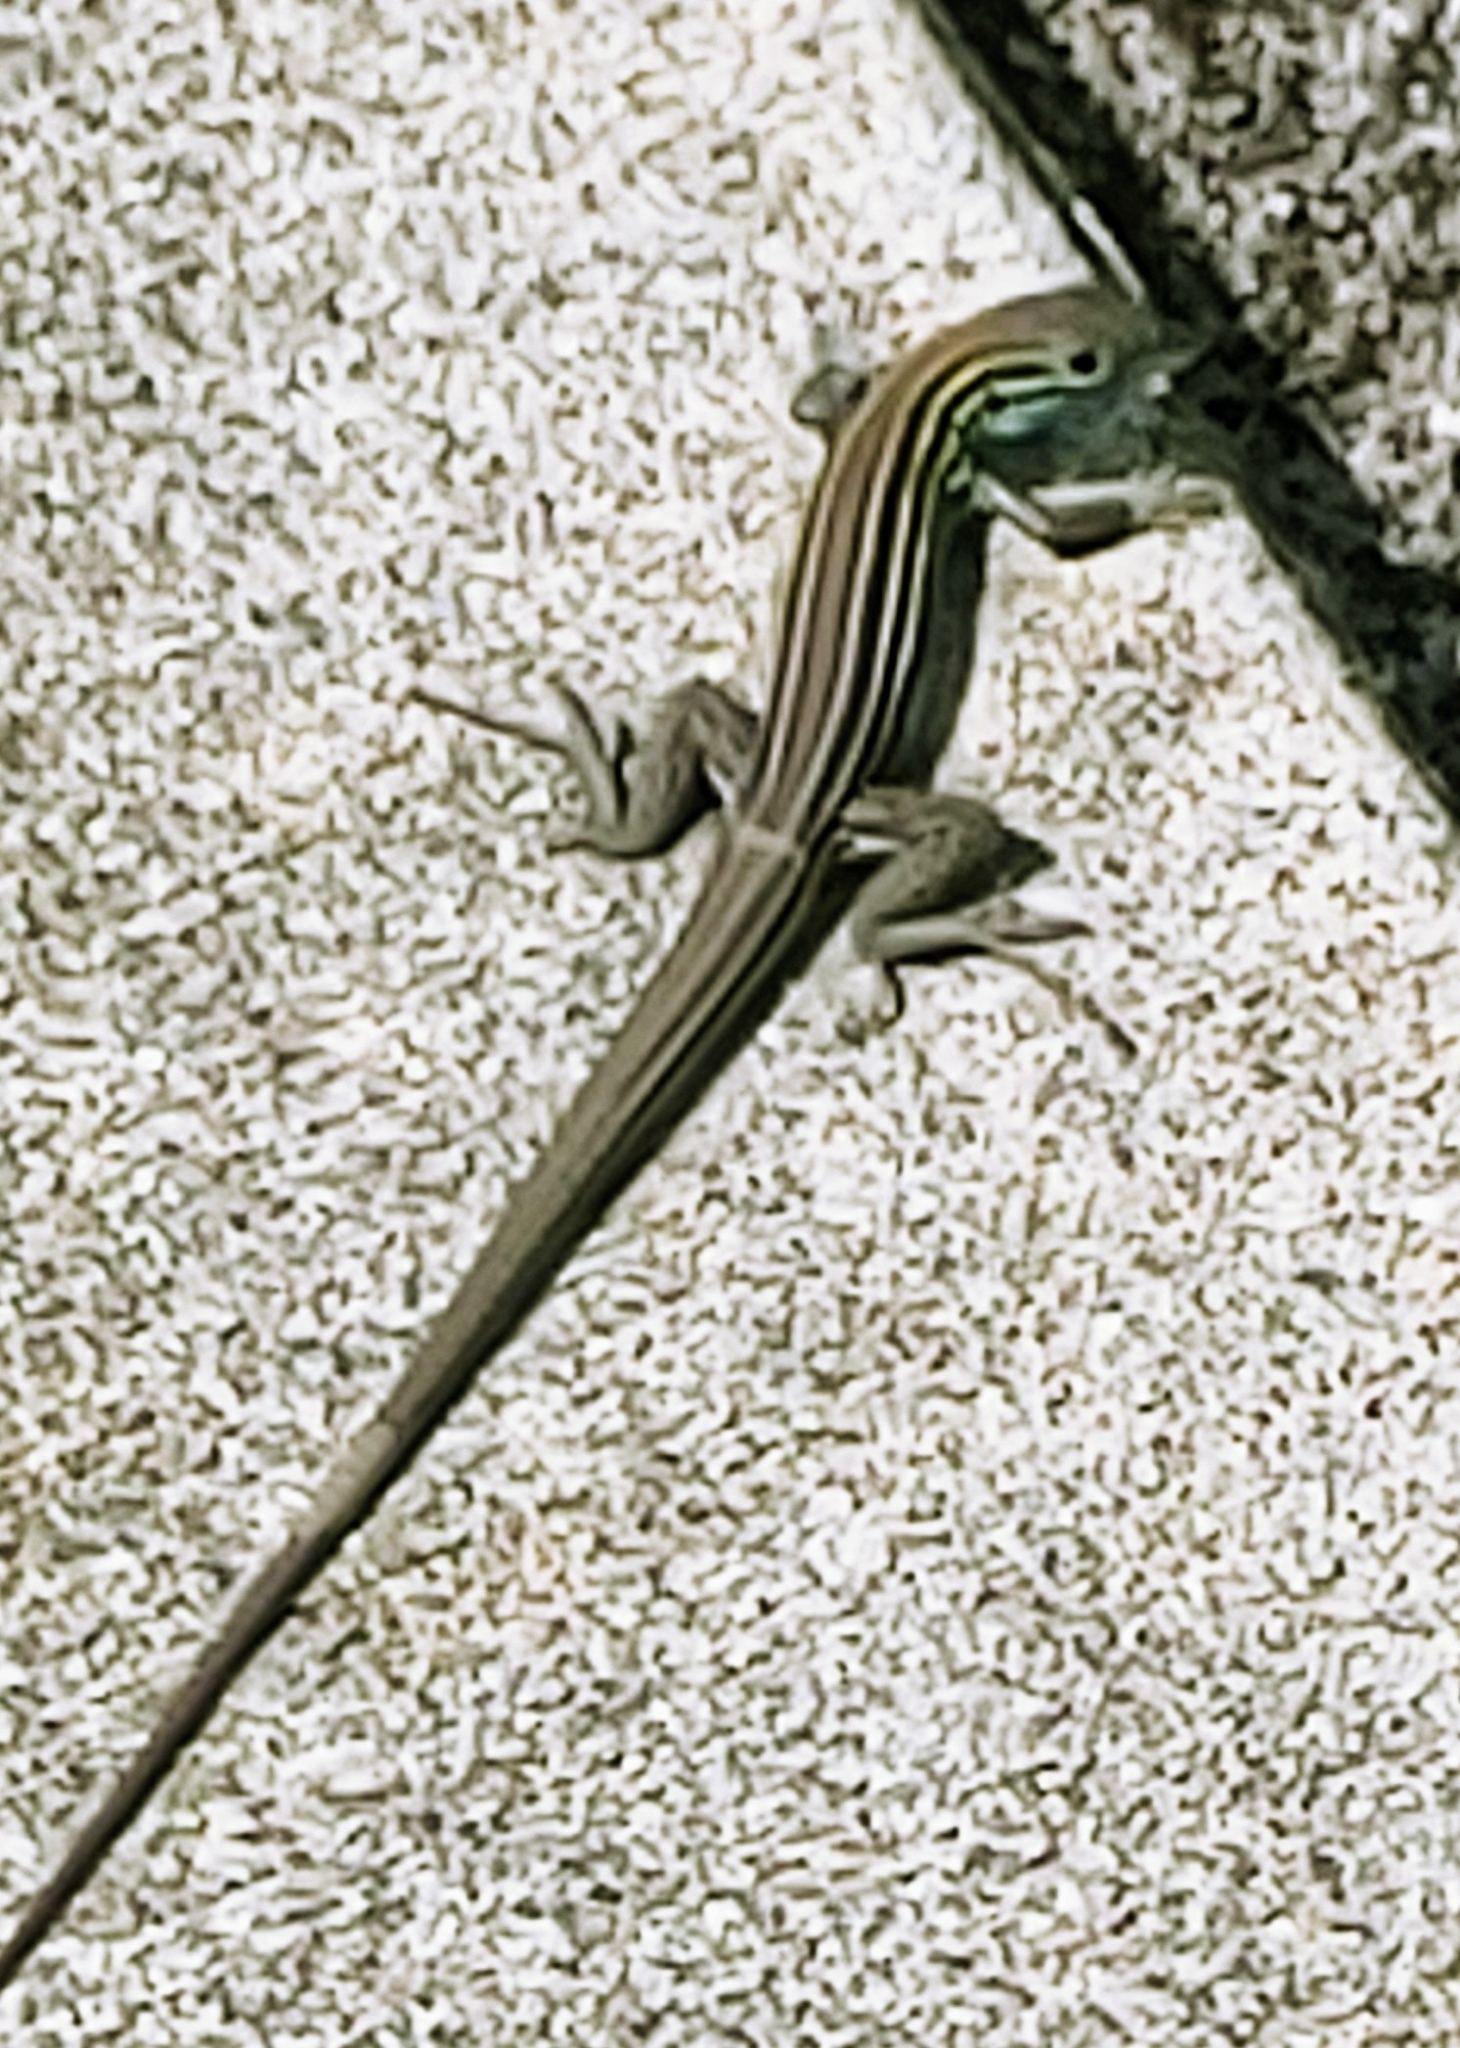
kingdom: Animalia
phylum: Chordata
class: Squamata
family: Teiidae
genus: Aspidoscelis
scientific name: Aspidoscelis sexlineatus
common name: Six-lined racerunner
